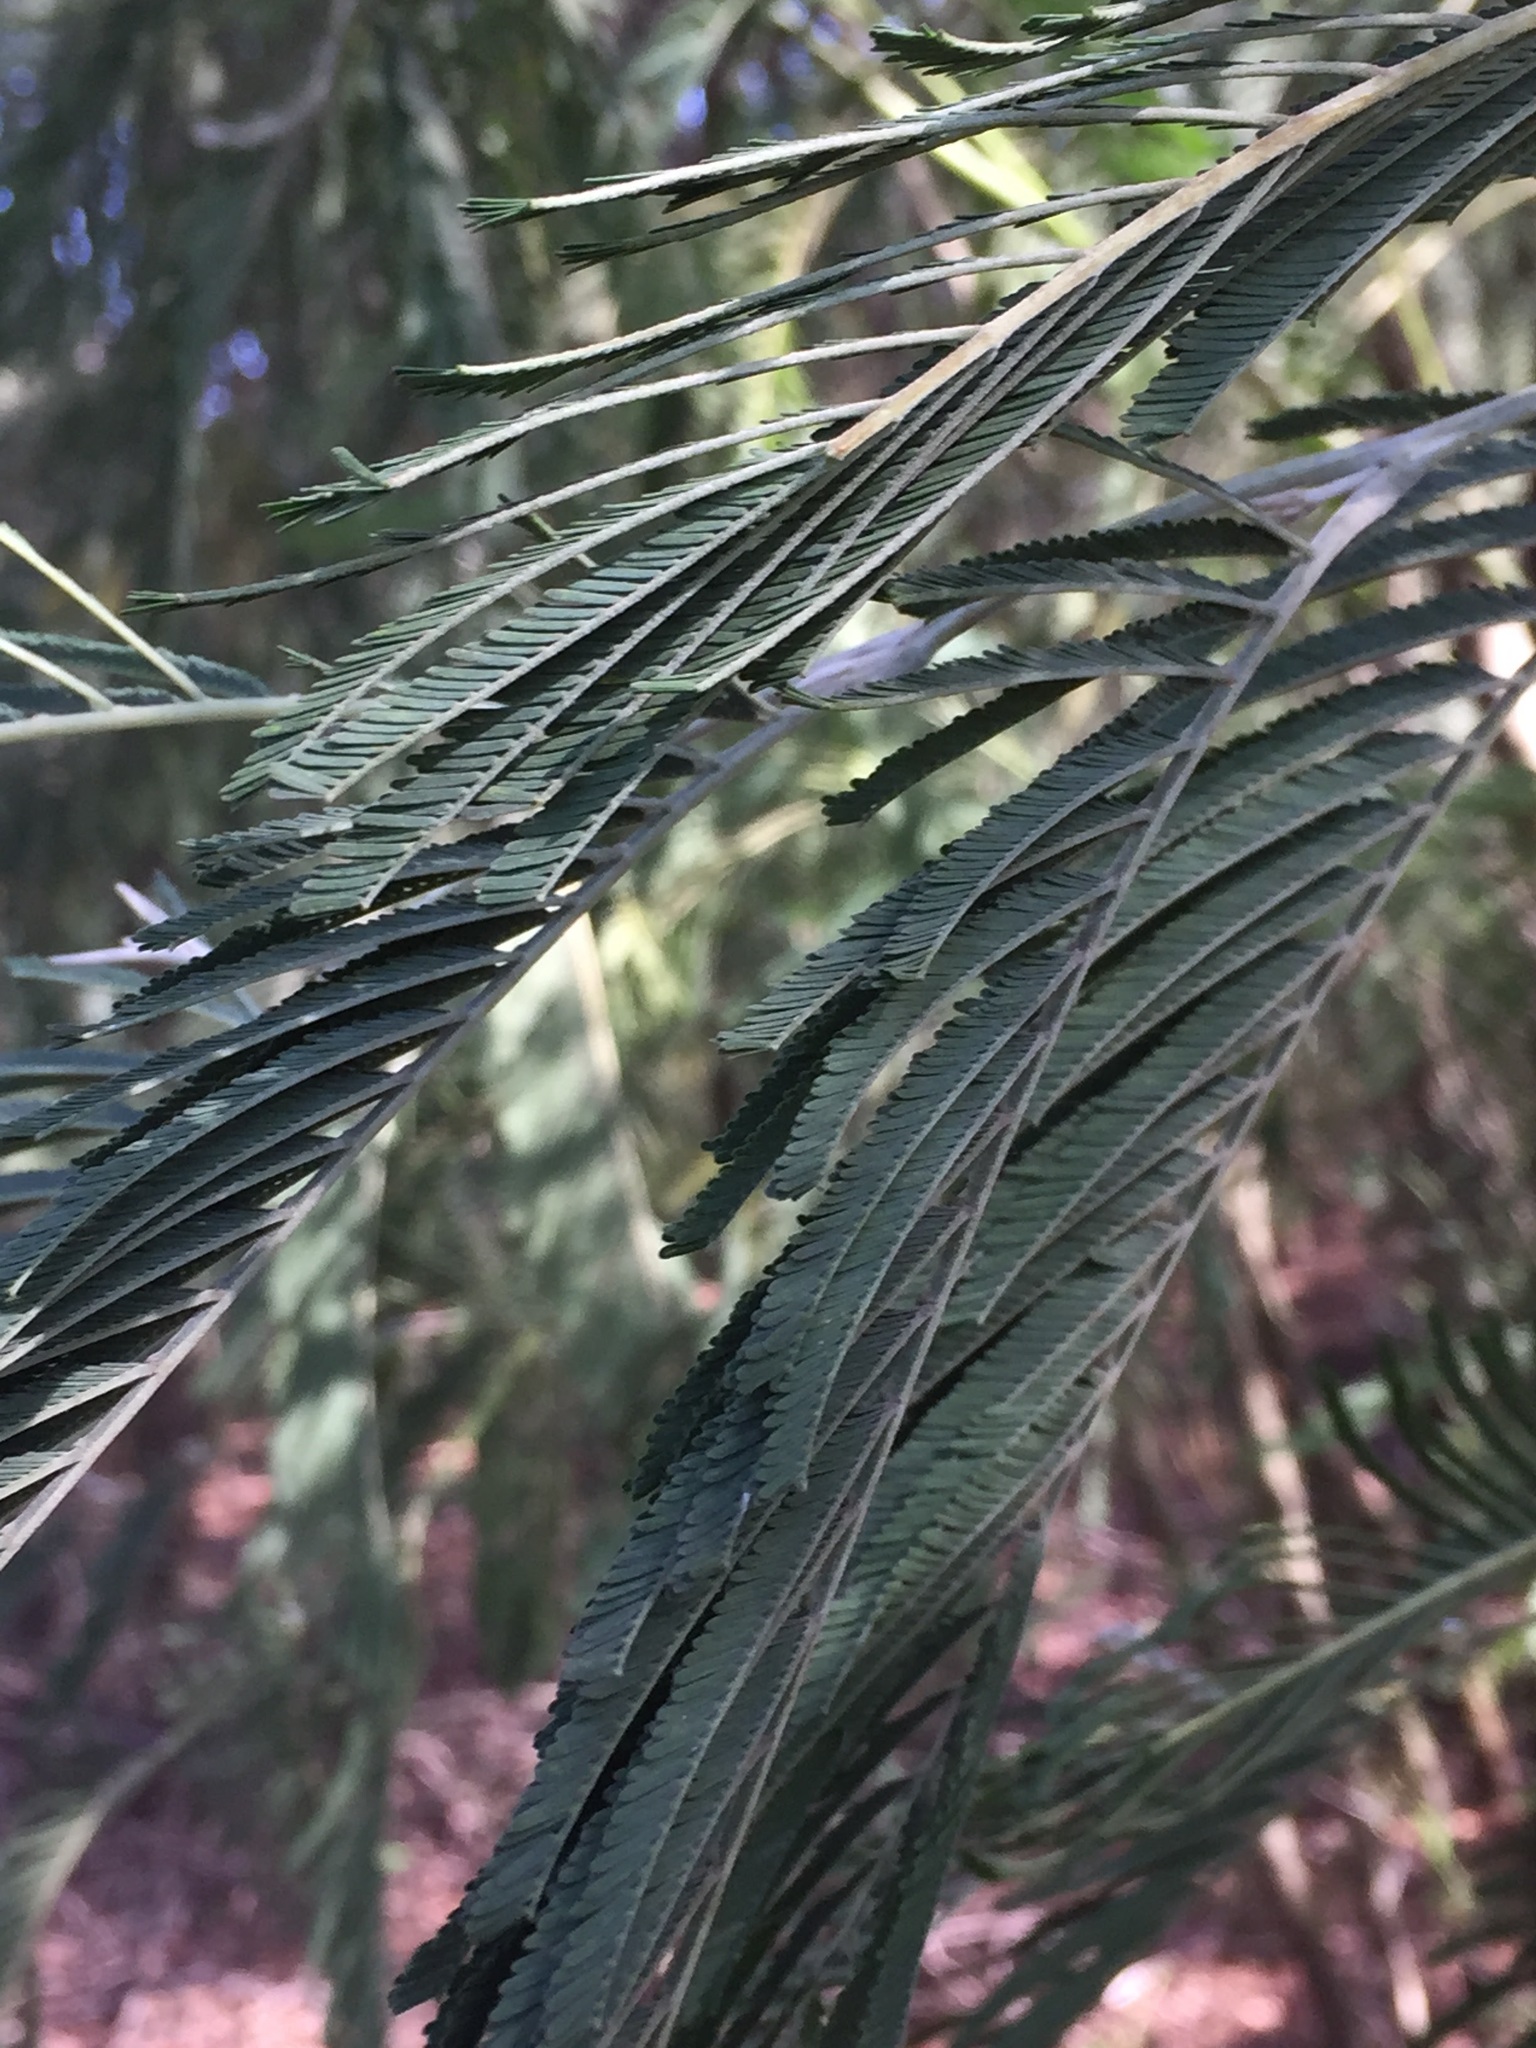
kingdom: Plantae
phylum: Tracheophyta
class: Magnoliopsida
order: Fabales
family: Fabaceae
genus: Acacia
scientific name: Acacia dealbata
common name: Silver wattle
